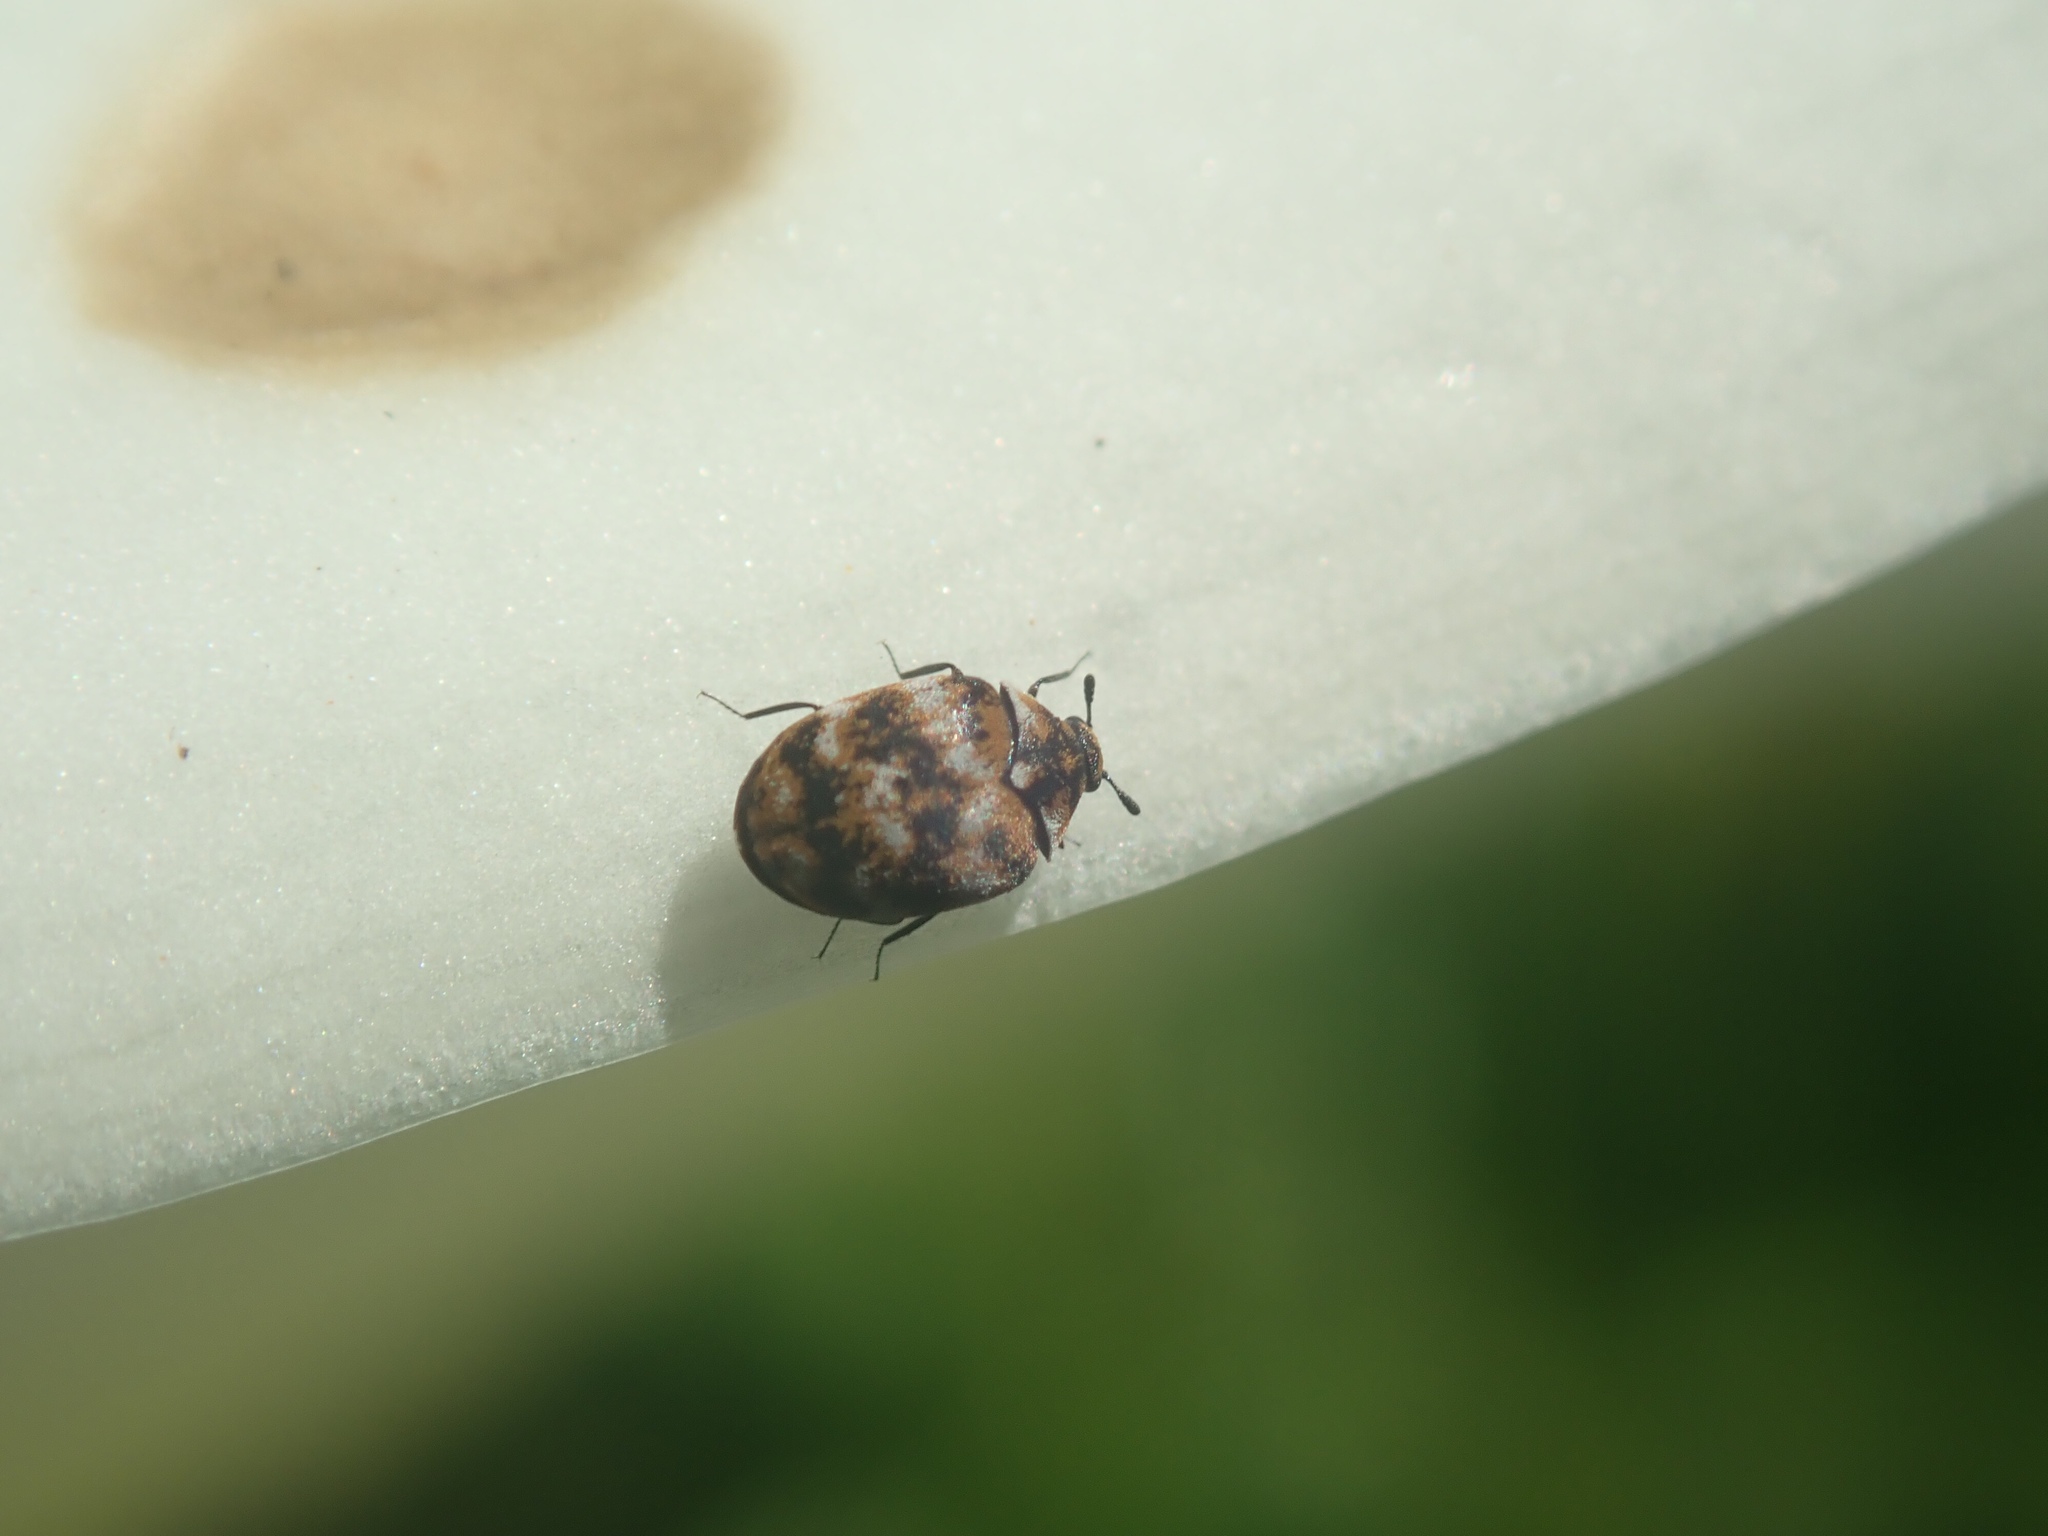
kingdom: Animalia
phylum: Arthropoda
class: Insecta
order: Coleoptera
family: Dermestidae
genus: Anthrenus
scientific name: Anthrenus verbasci
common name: Varied carpet beetle
